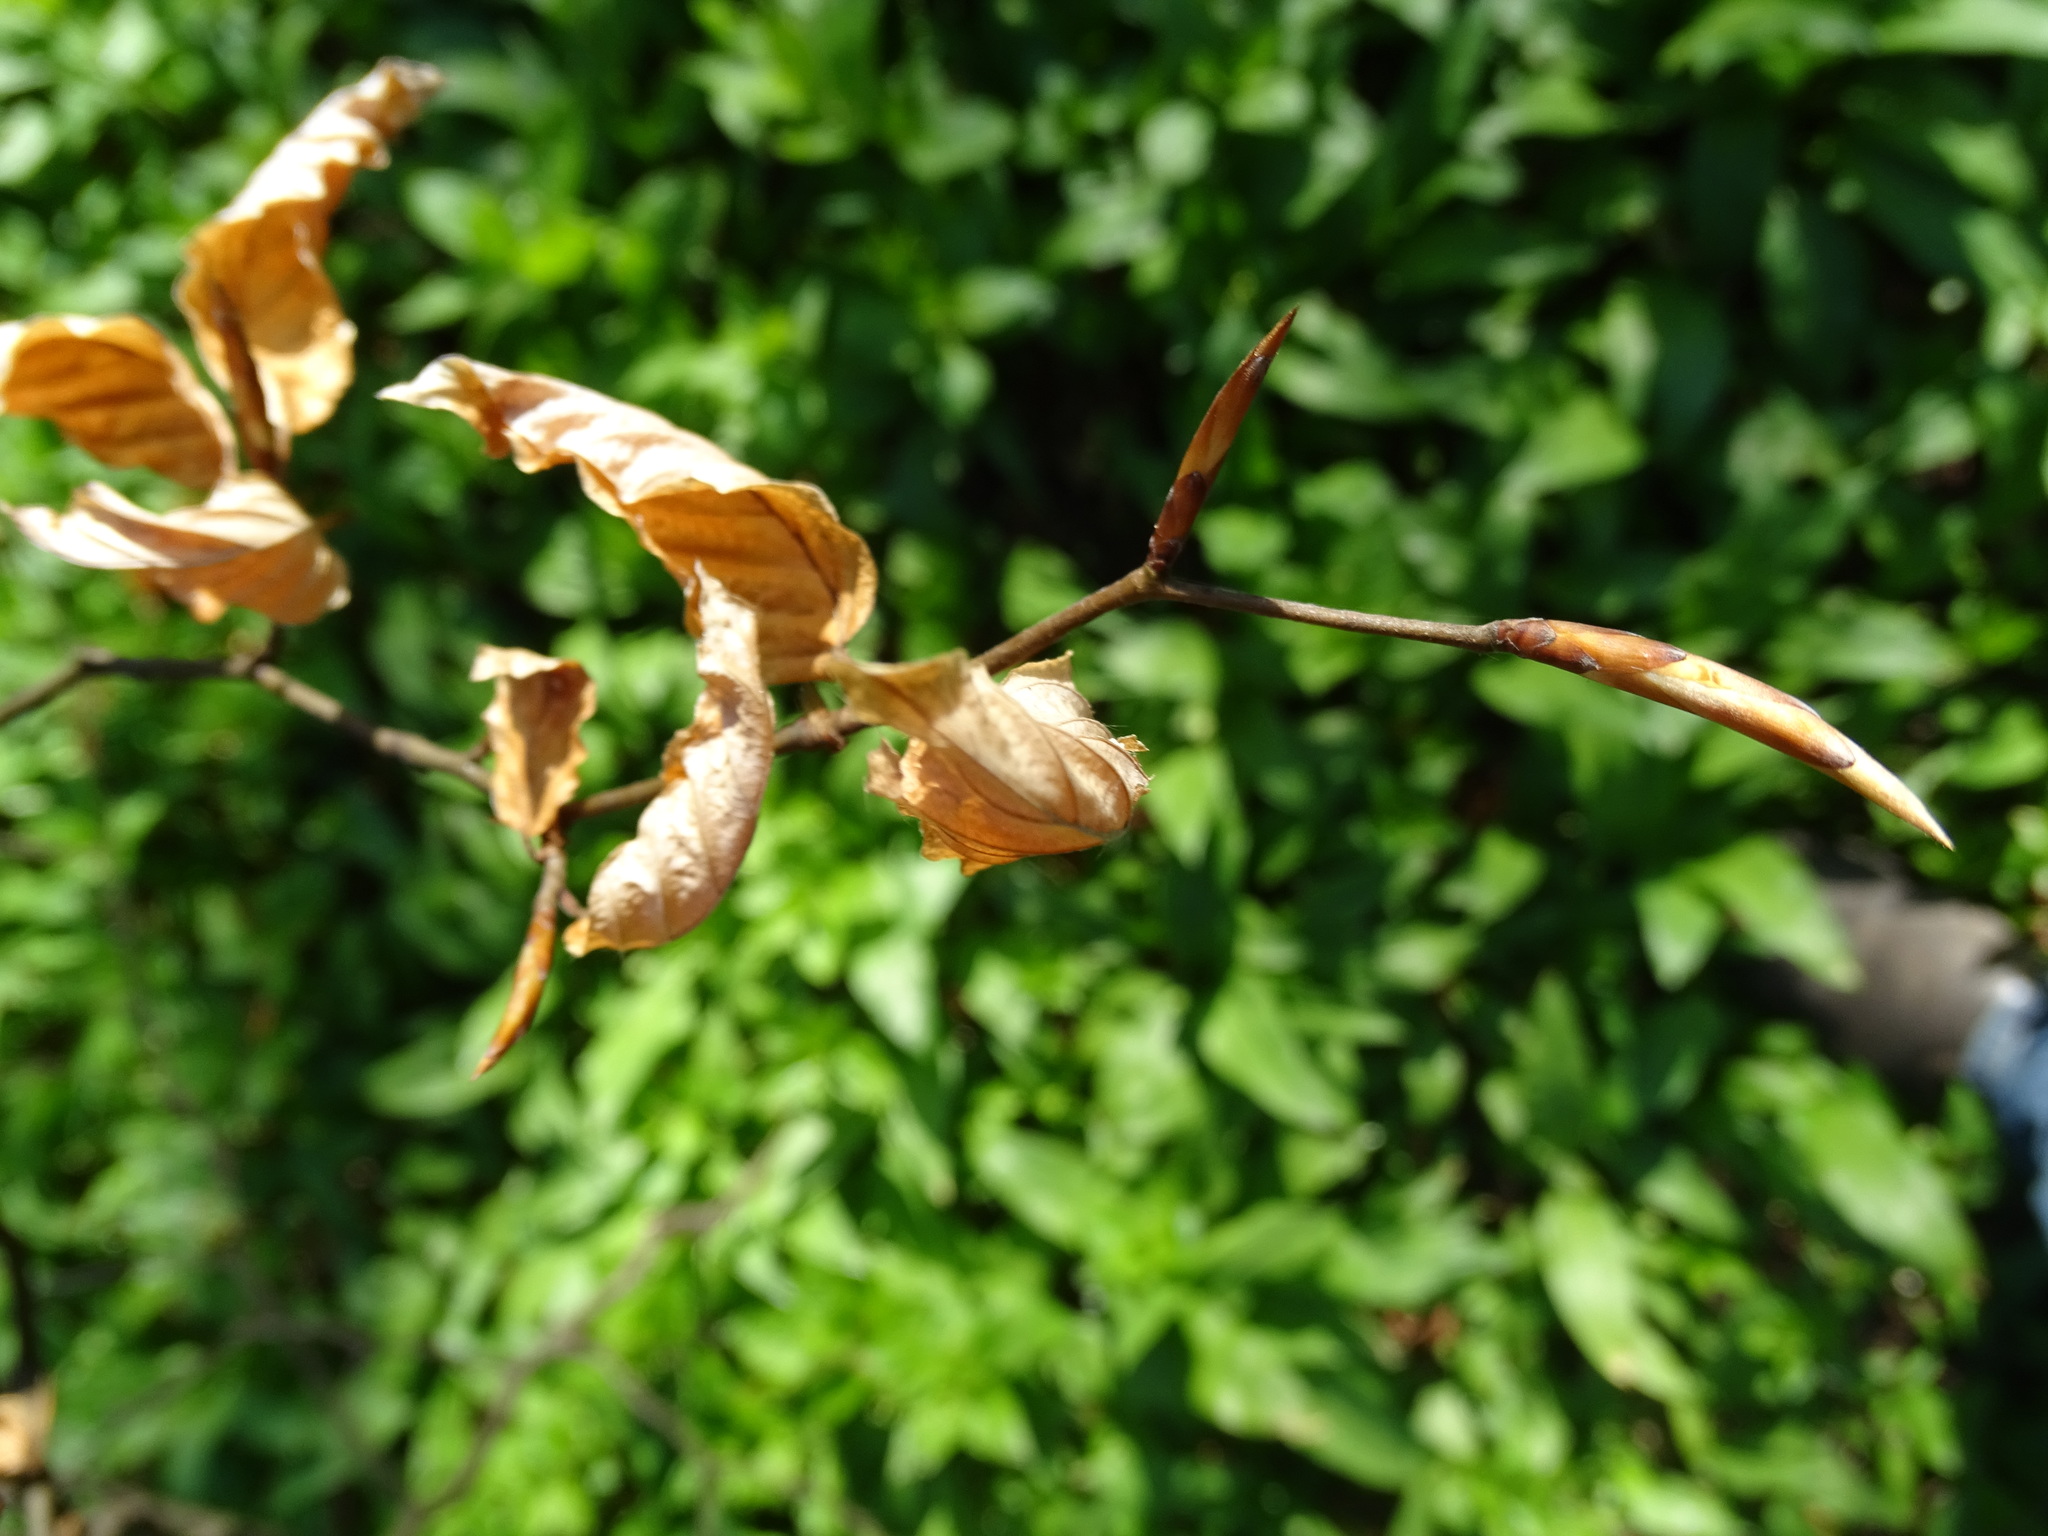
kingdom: Plantae
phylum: Tracheophyta
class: Magnoliopsida
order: Fagales
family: Fagaceae
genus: Fagus
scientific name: Fagus sylvatica
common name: Beech
